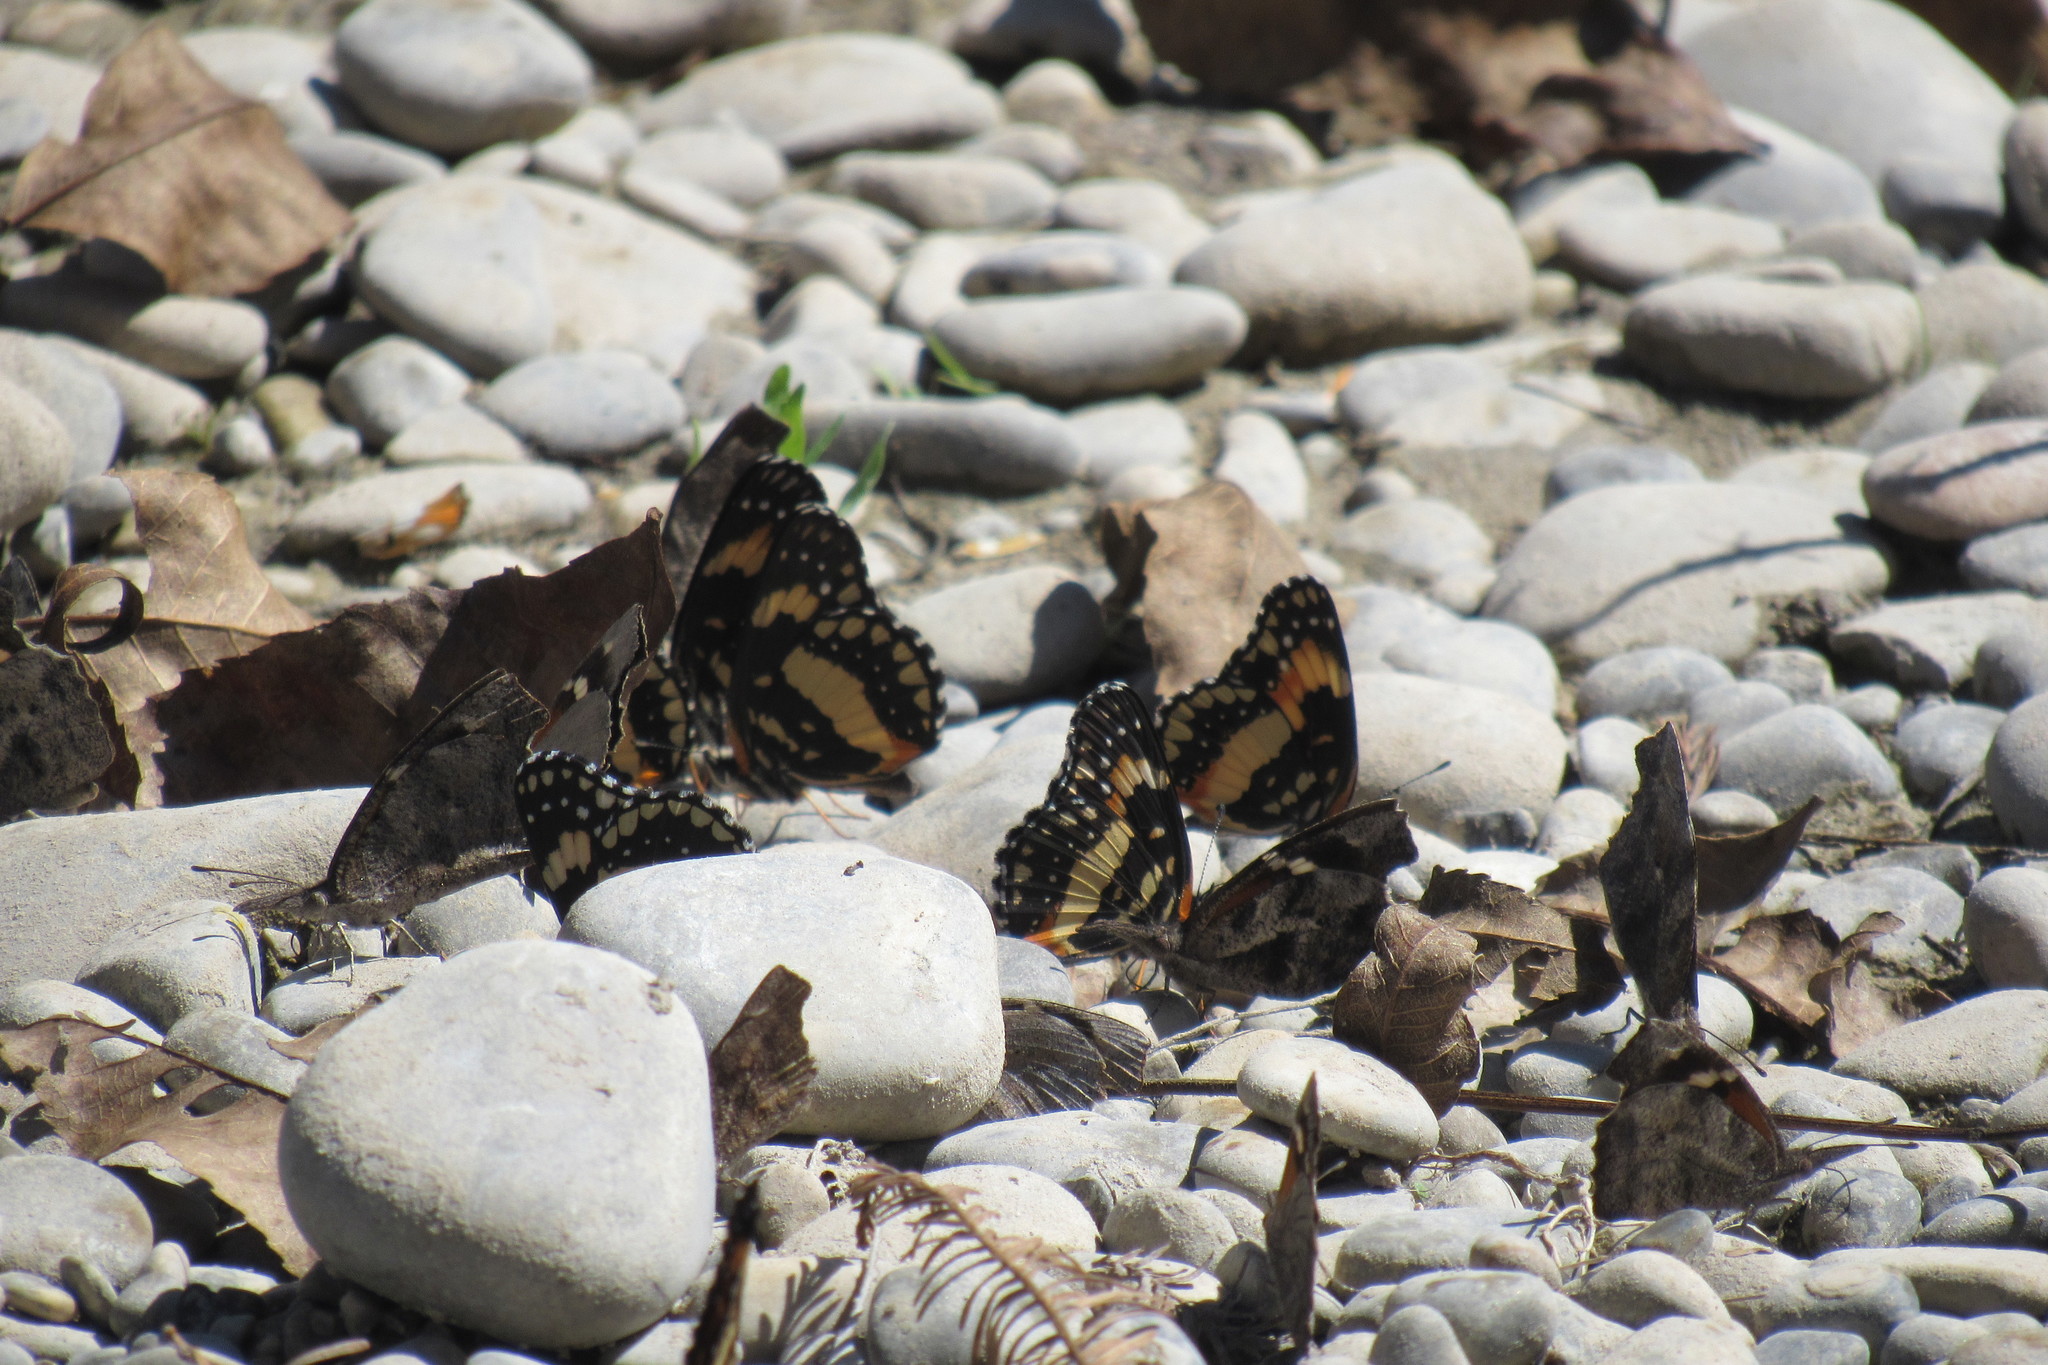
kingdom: Animalia
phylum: Arthropoda
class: Insecta
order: Lepidoptera
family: Nymphalidae
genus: Chlosyne
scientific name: Chlosyne lacinia
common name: Bordered patch
